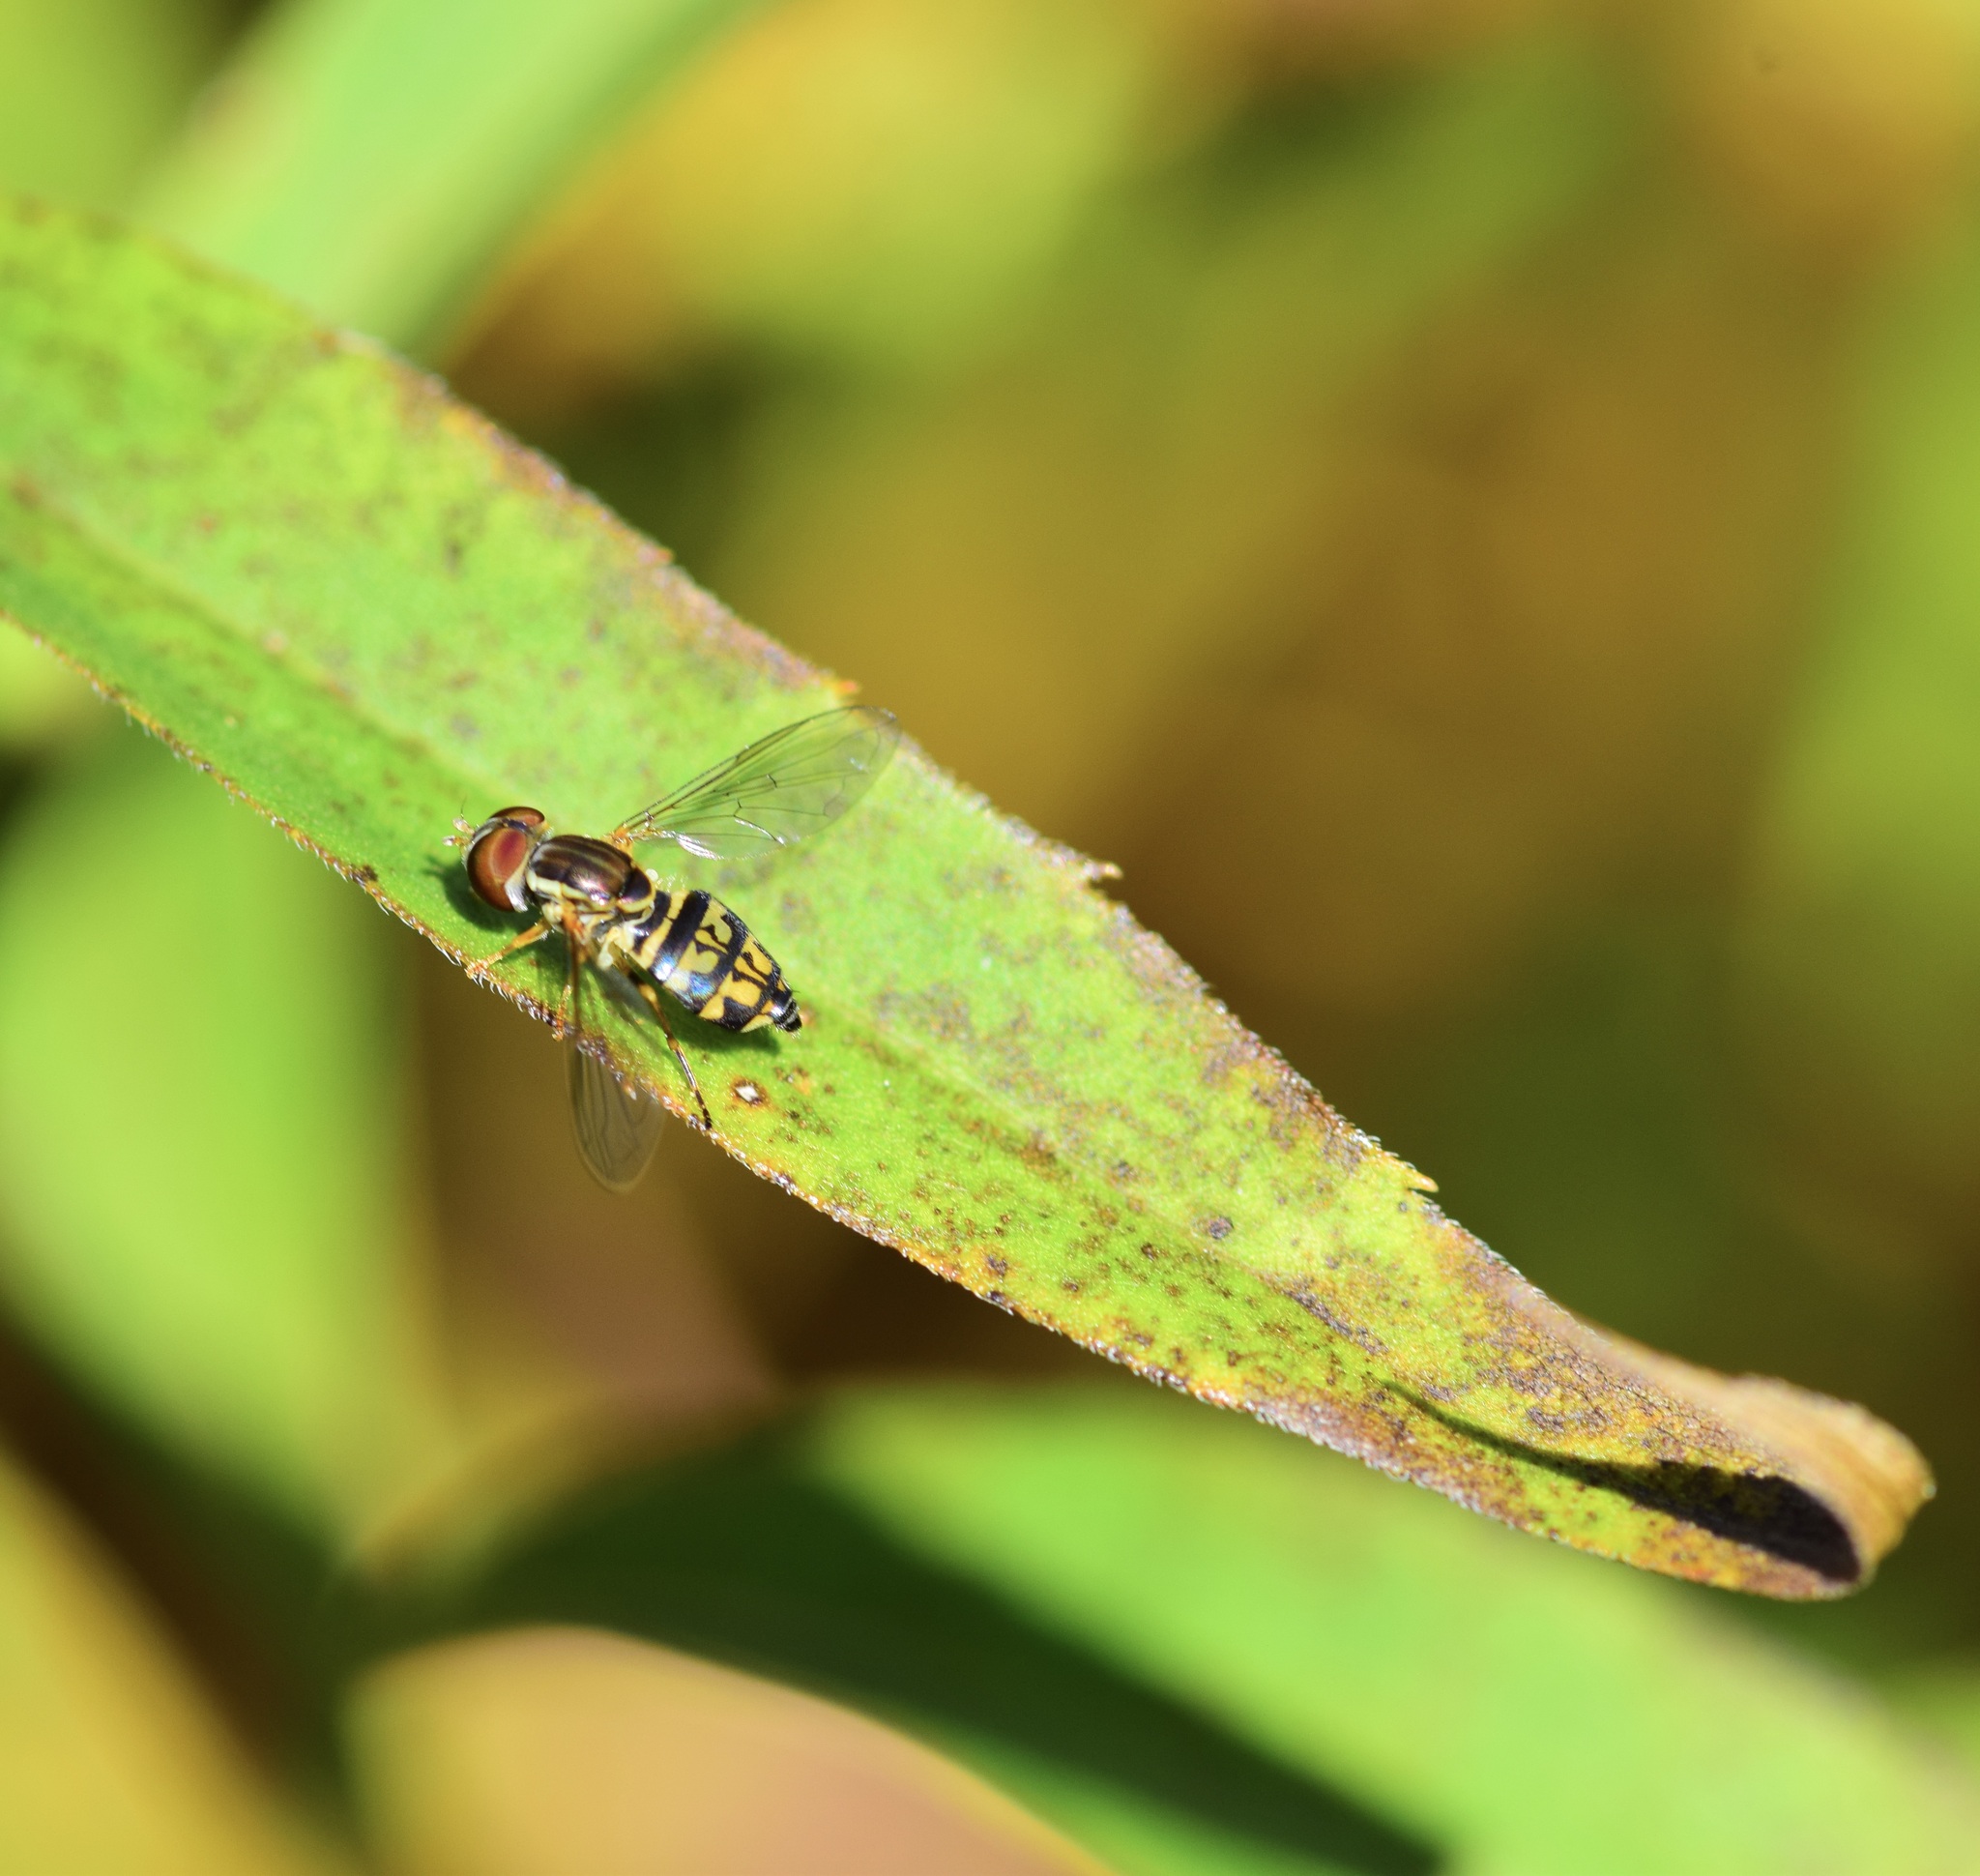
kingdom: Animalia
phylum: Arthropoda
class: Insecta
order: Diptera
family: Syrphidae
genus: Toxomerus
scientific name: Toxomerus geminatus
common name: Eastern calligrapher
